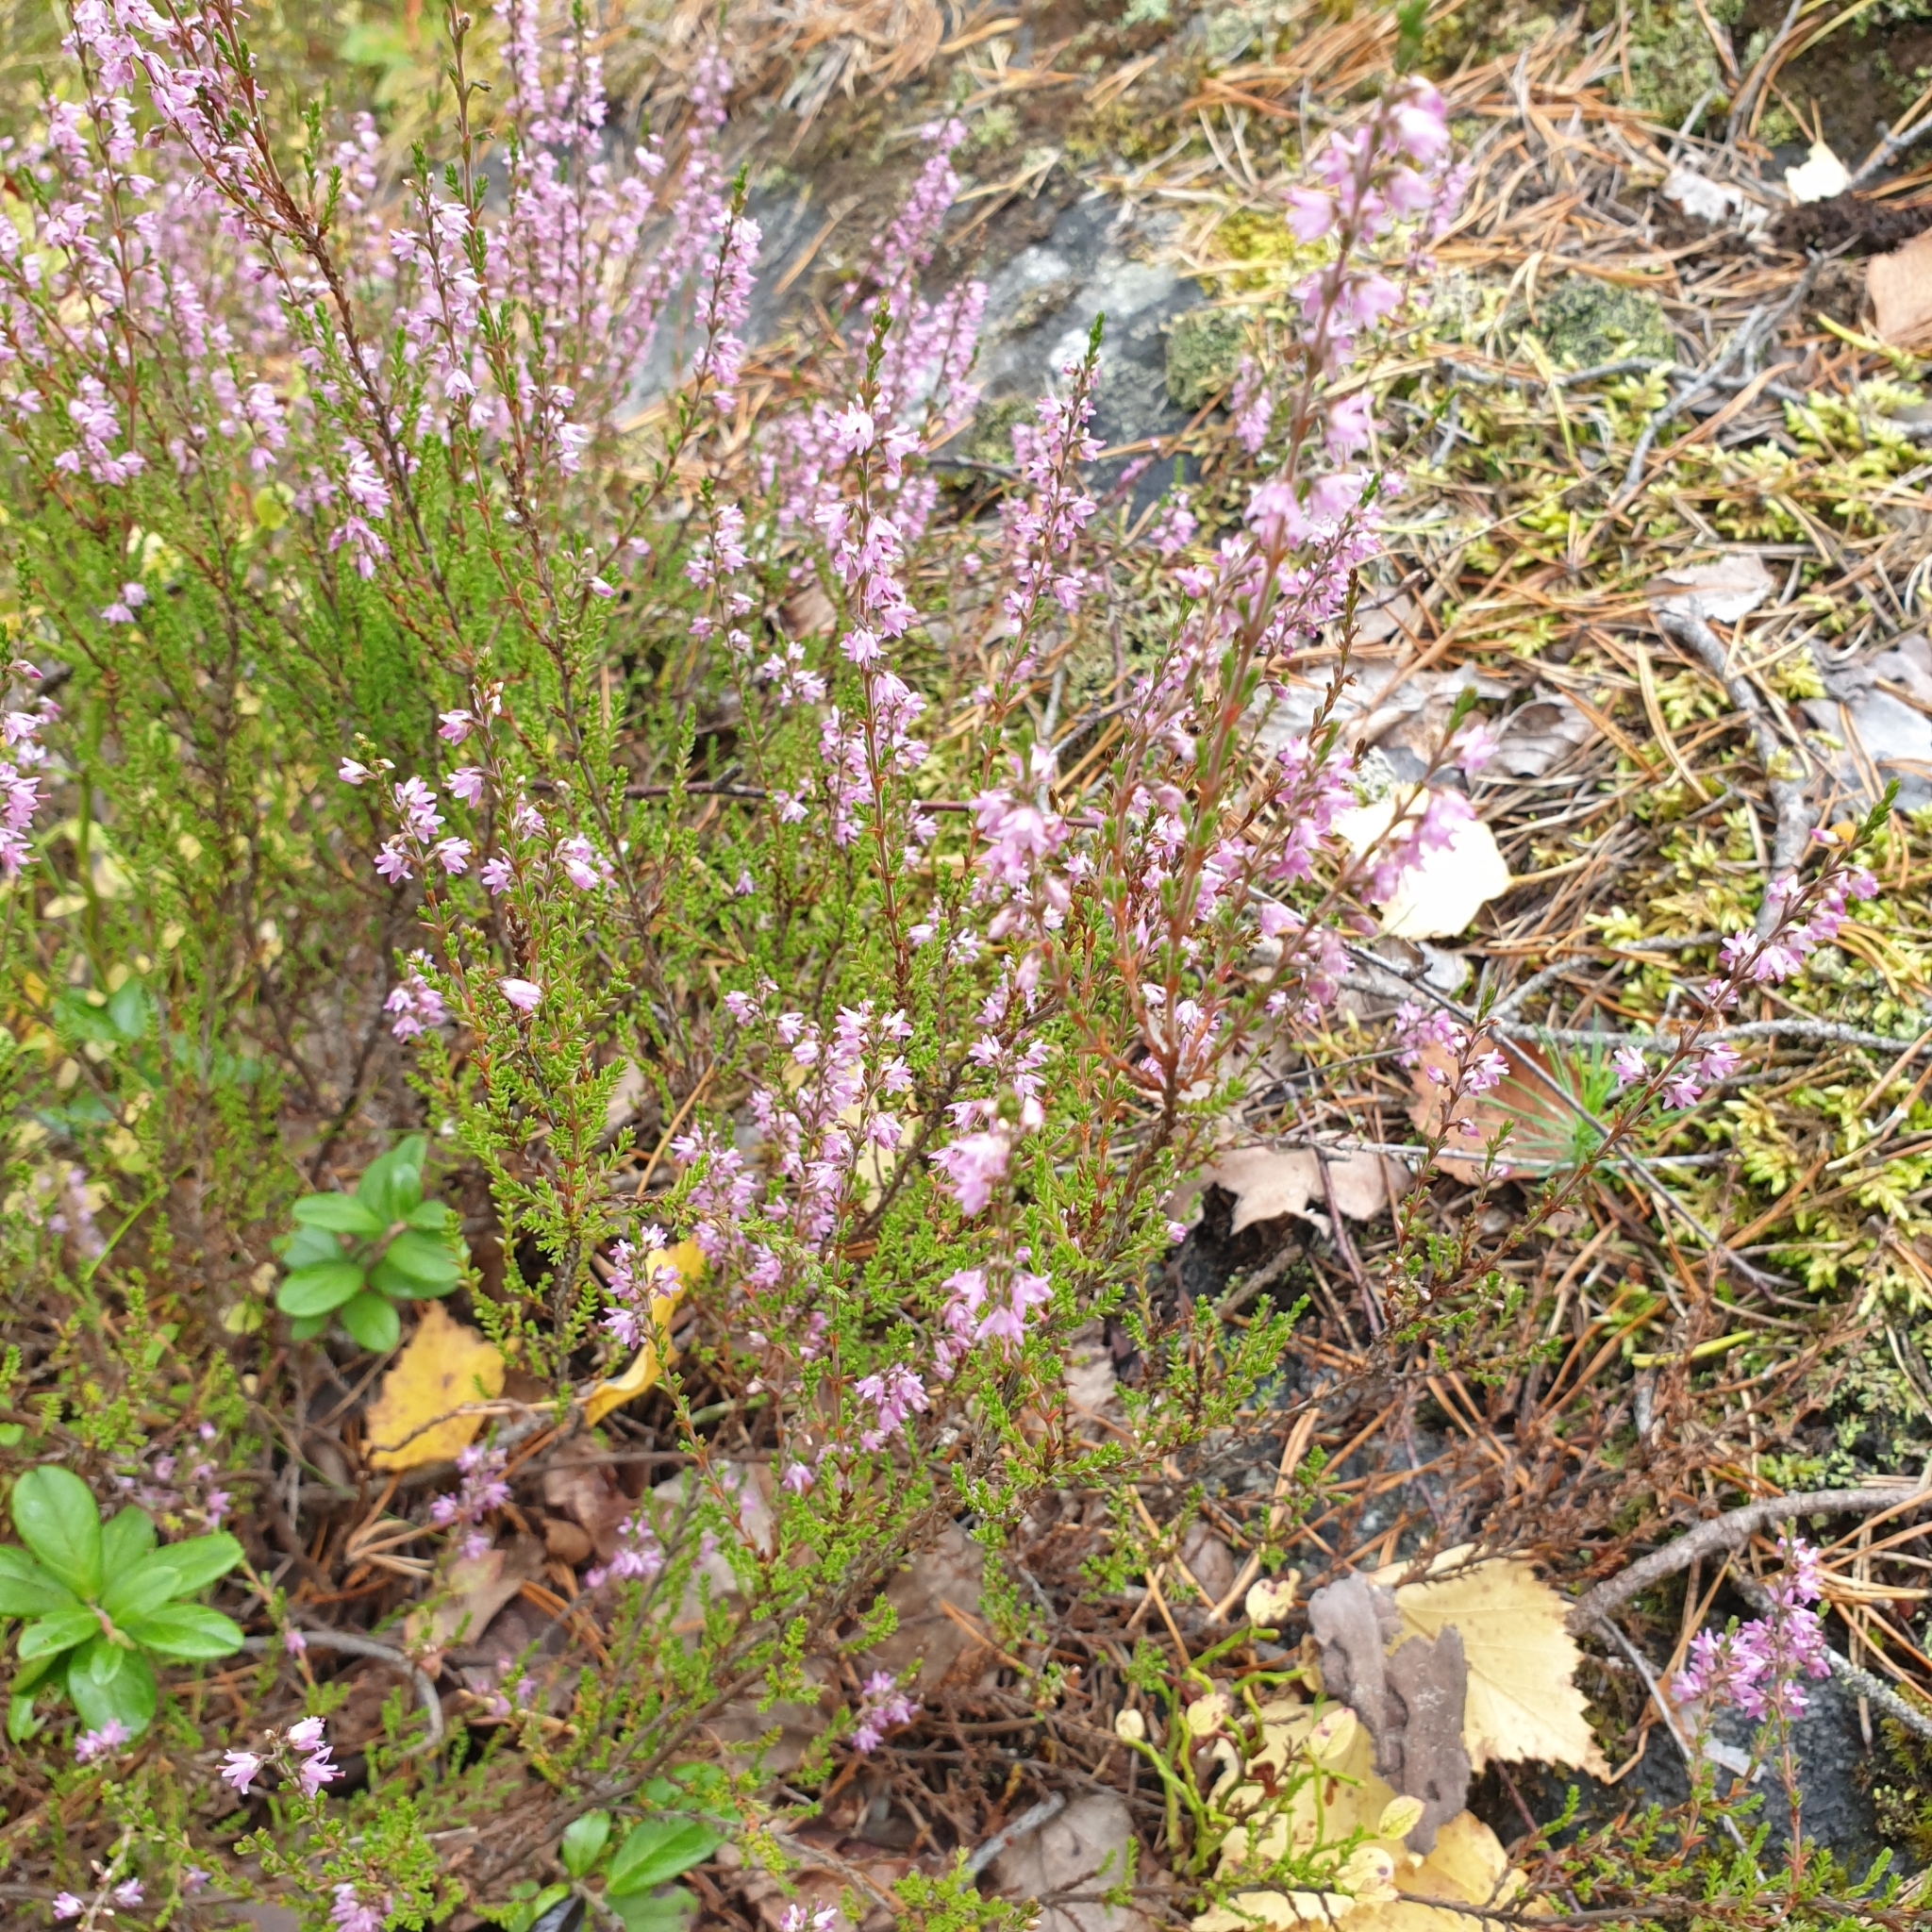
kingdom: Plantae
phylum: Tracheophyta
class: Magnoliopsida
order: Ericales
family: Ericaceae
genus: Calluna
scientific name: Calluna vulgaris
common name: Heather
